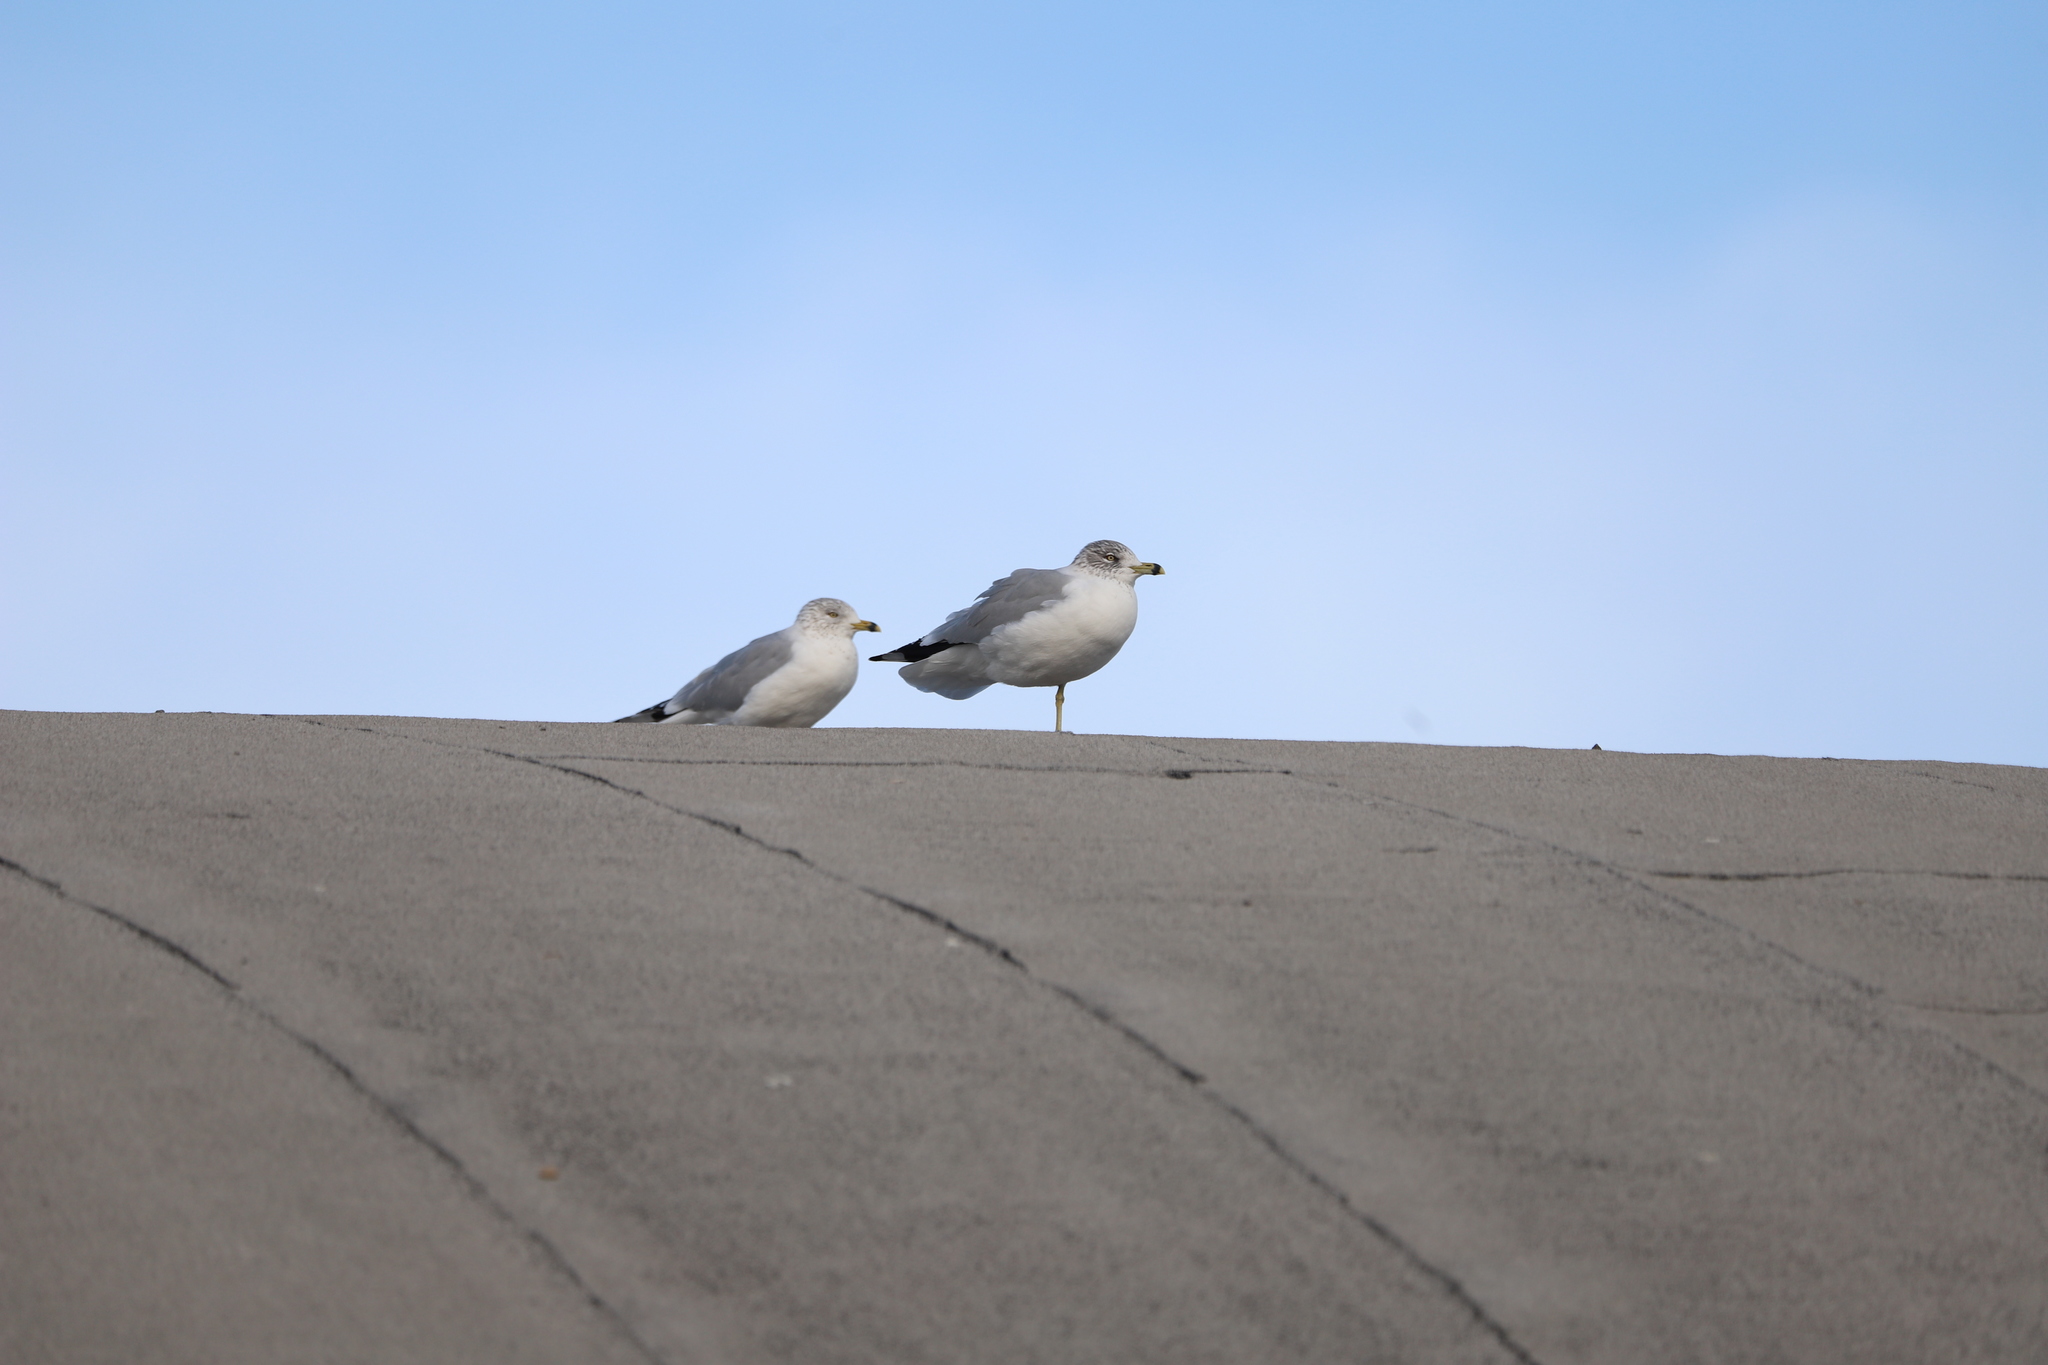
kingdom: Animalia
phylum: Chordata
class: Aves
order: Charadriiformes
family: Laridae
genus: Larus
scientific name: Larus delawarensis
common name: Ring-billed gull
